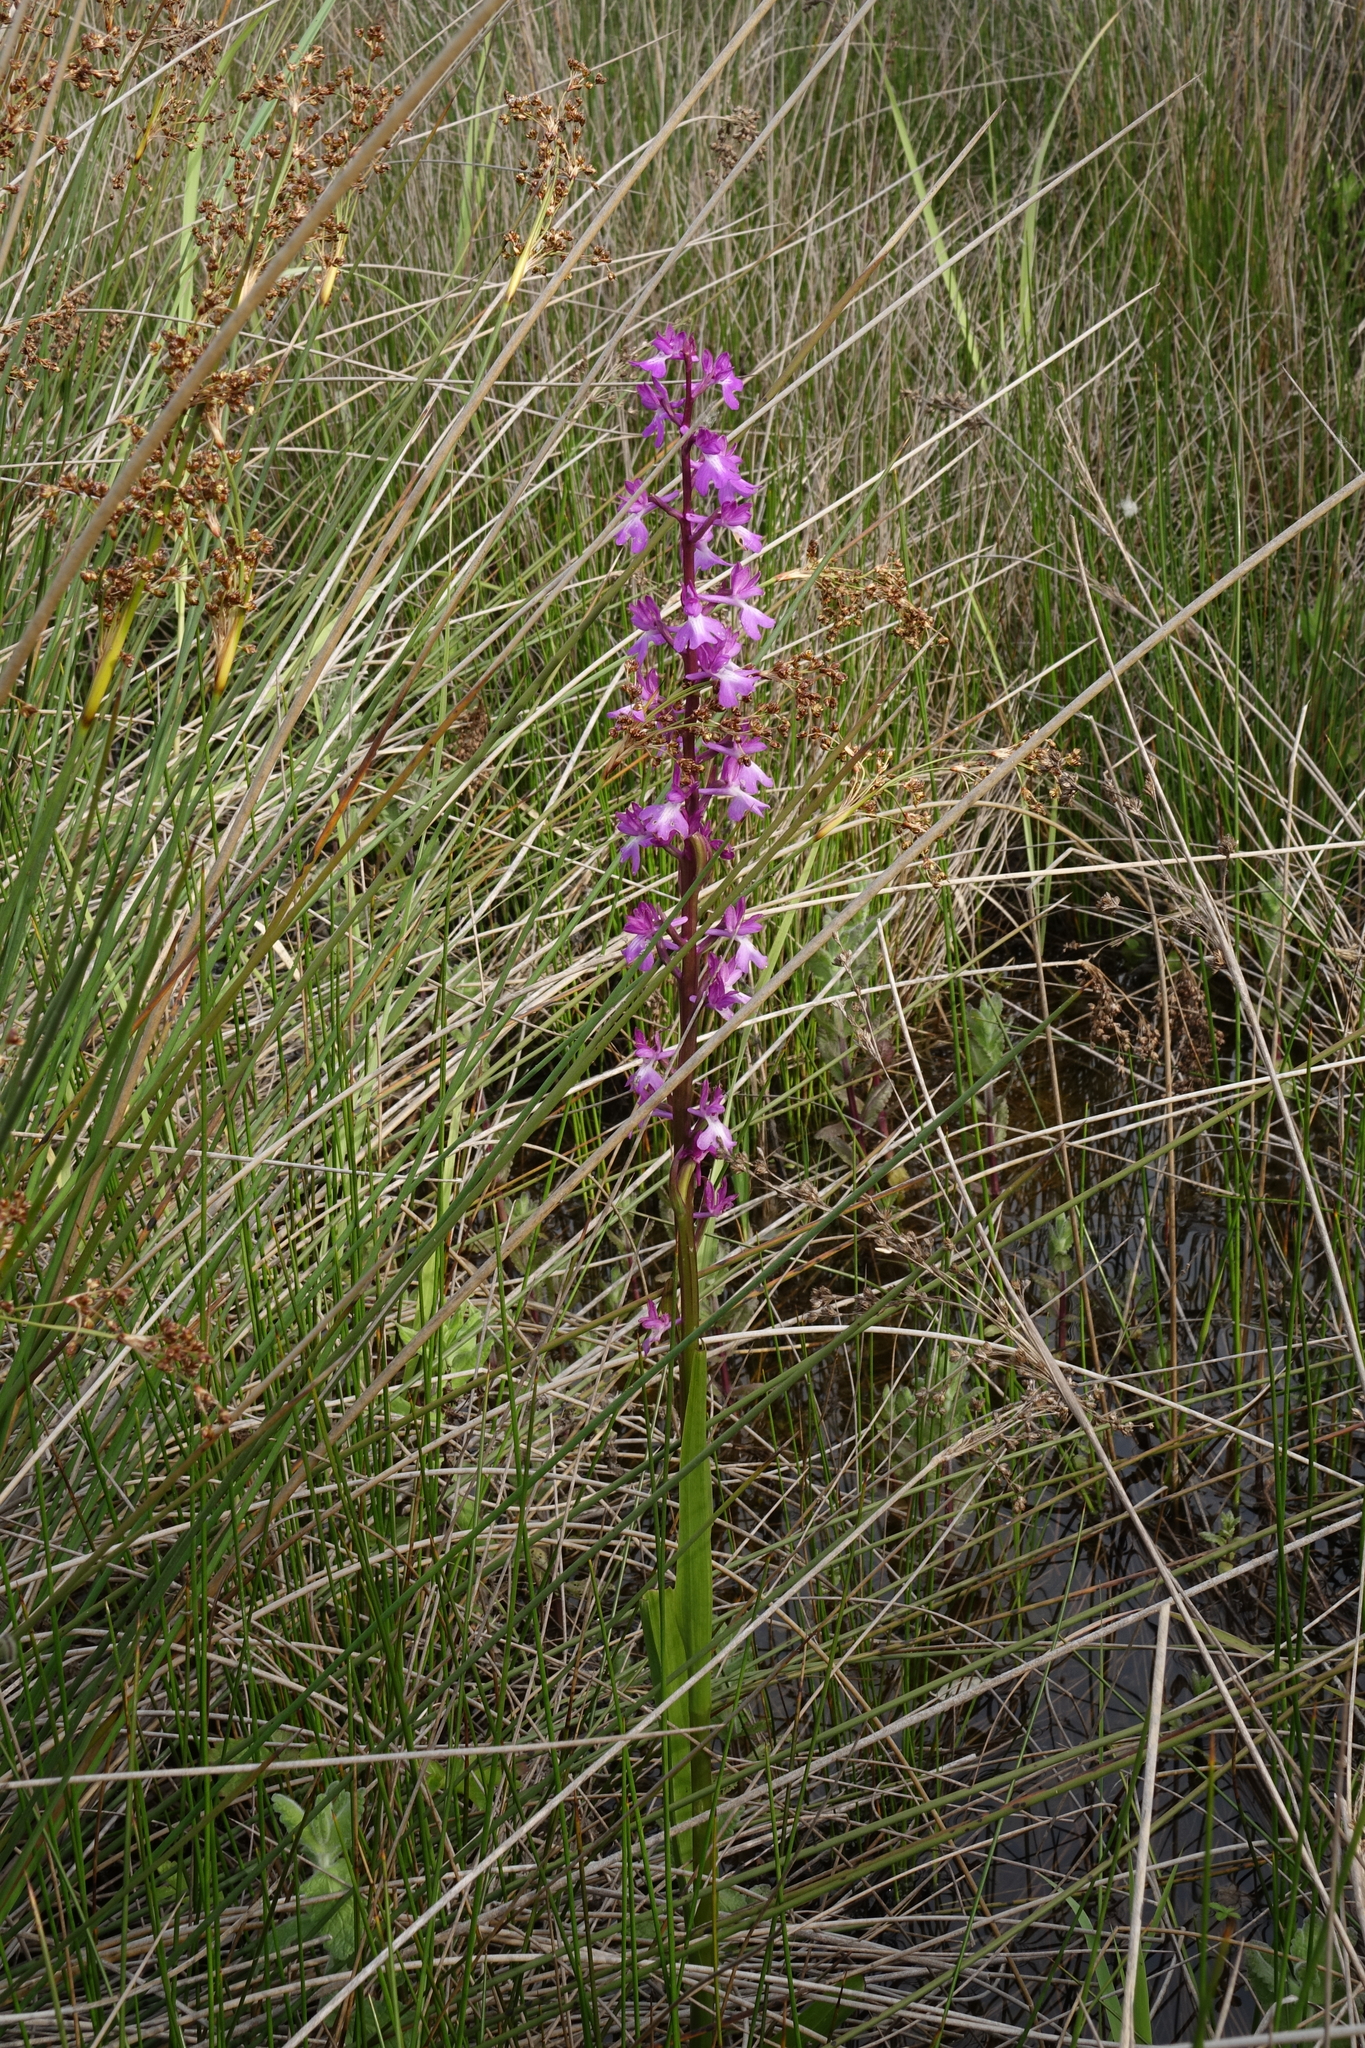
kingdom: Plantae
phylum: Tracheophyta
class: Liliopsida
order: Asparagales
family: Orchidaceae
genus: Anacamptis
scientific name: Anacamptis palustris
